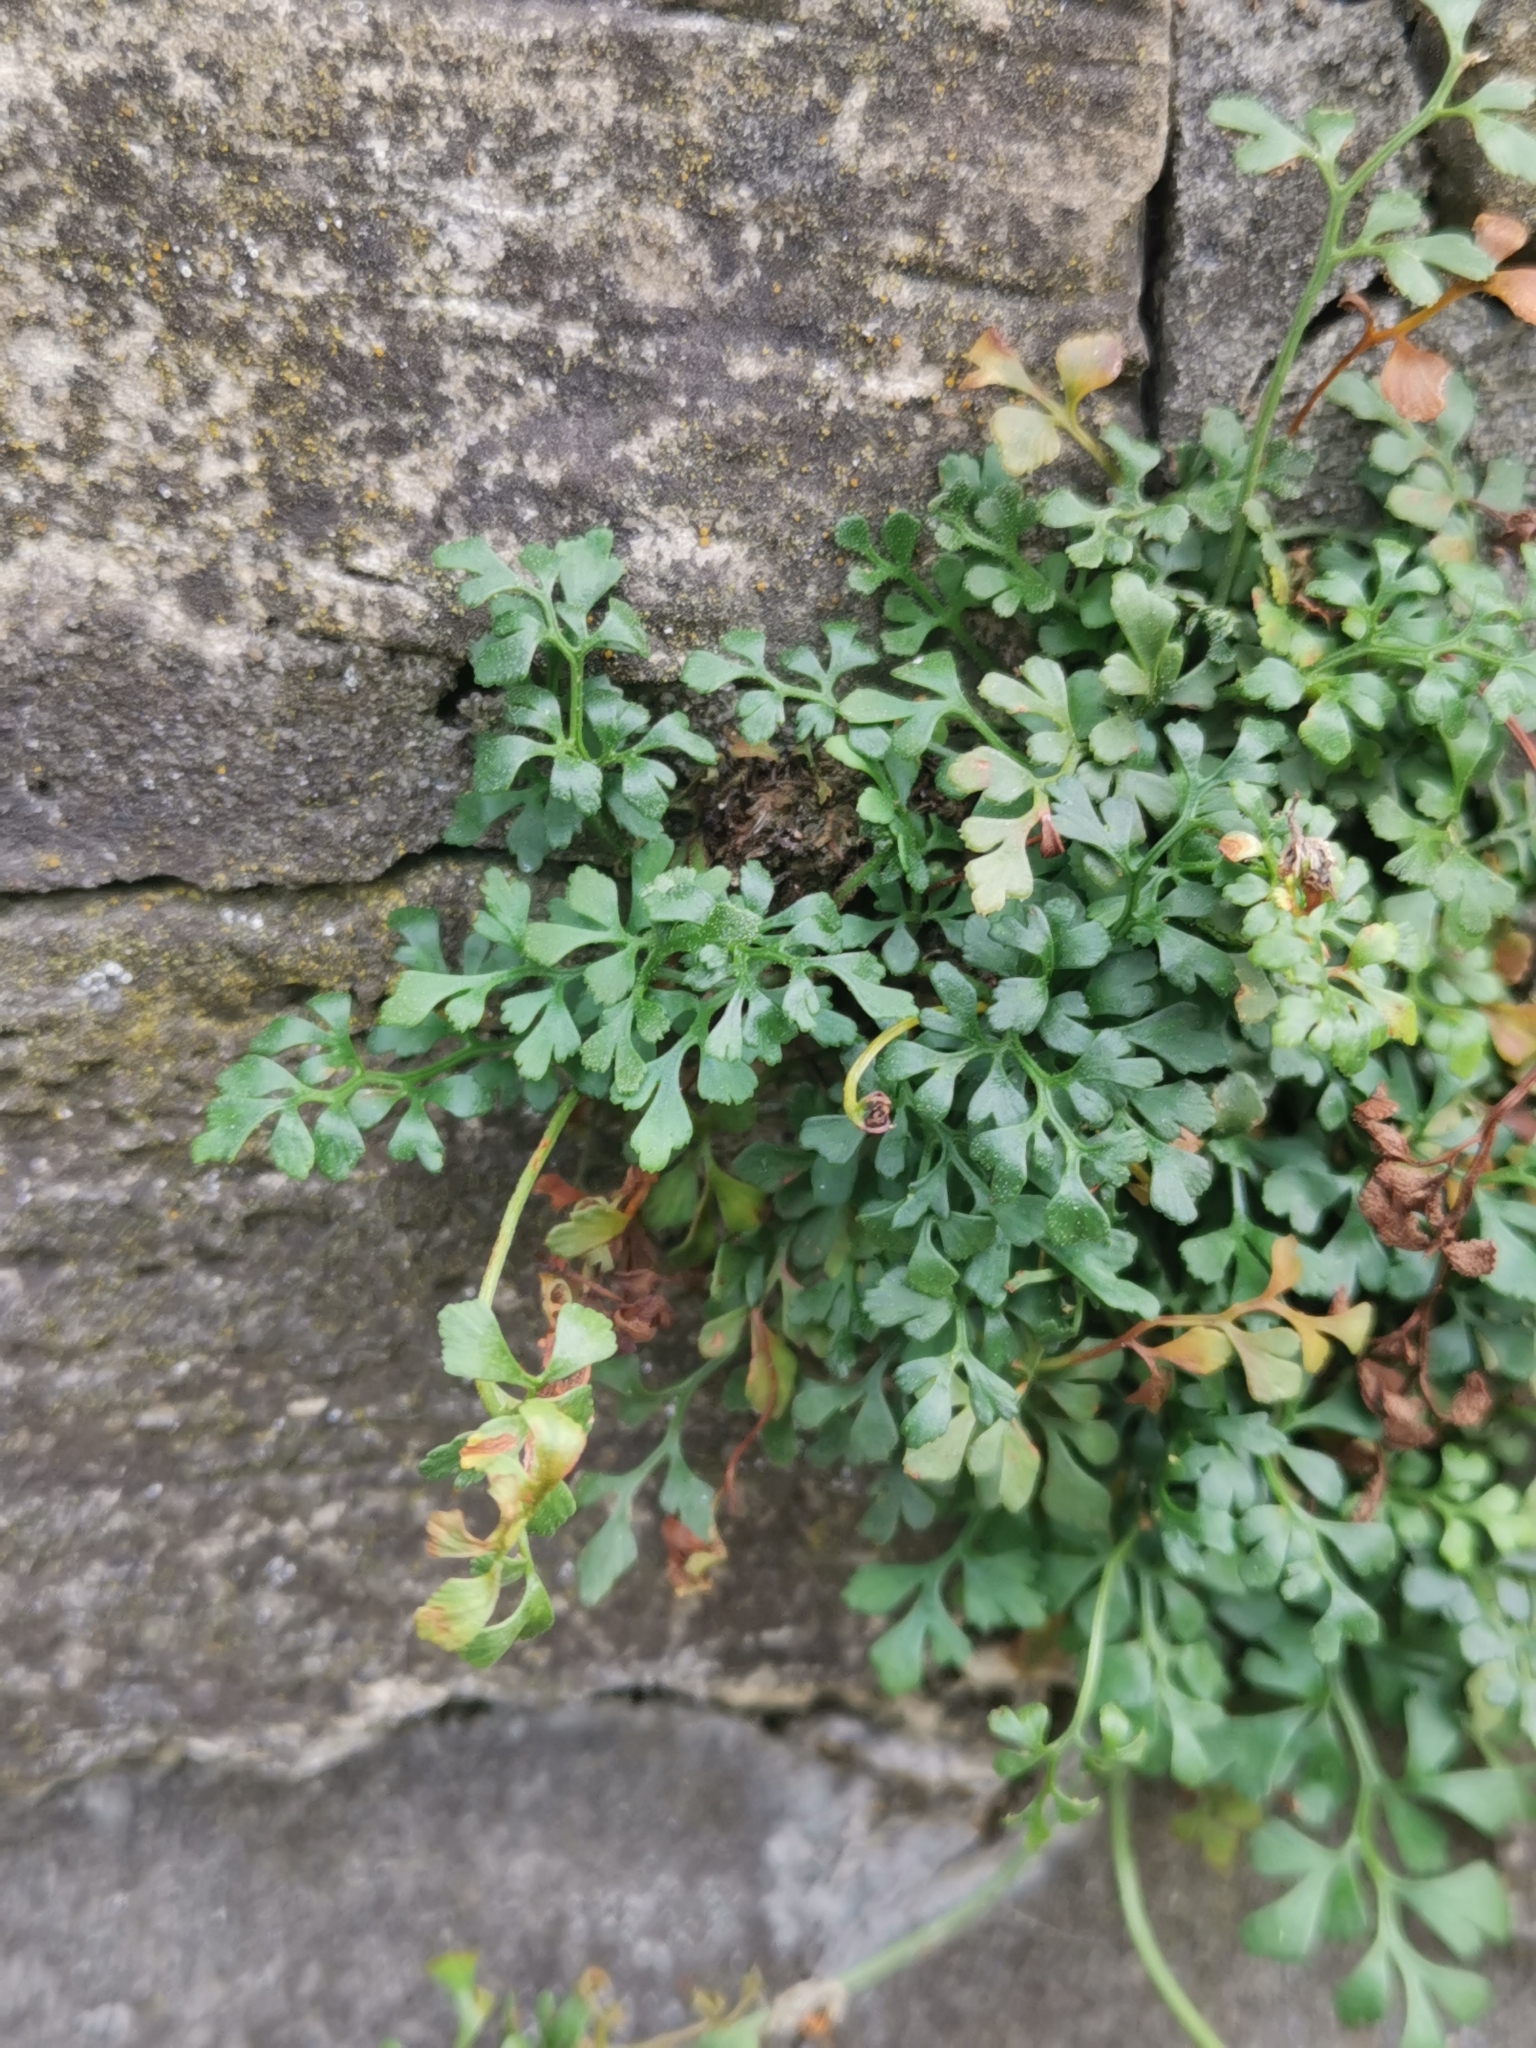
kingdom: Plantae
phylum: Tracheophyta
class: Polypodiopsida
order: Polypodiales
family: Aspleniaceae
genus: Asplenium
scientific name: Asplenium ruta-muraria
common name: Wall-rue
